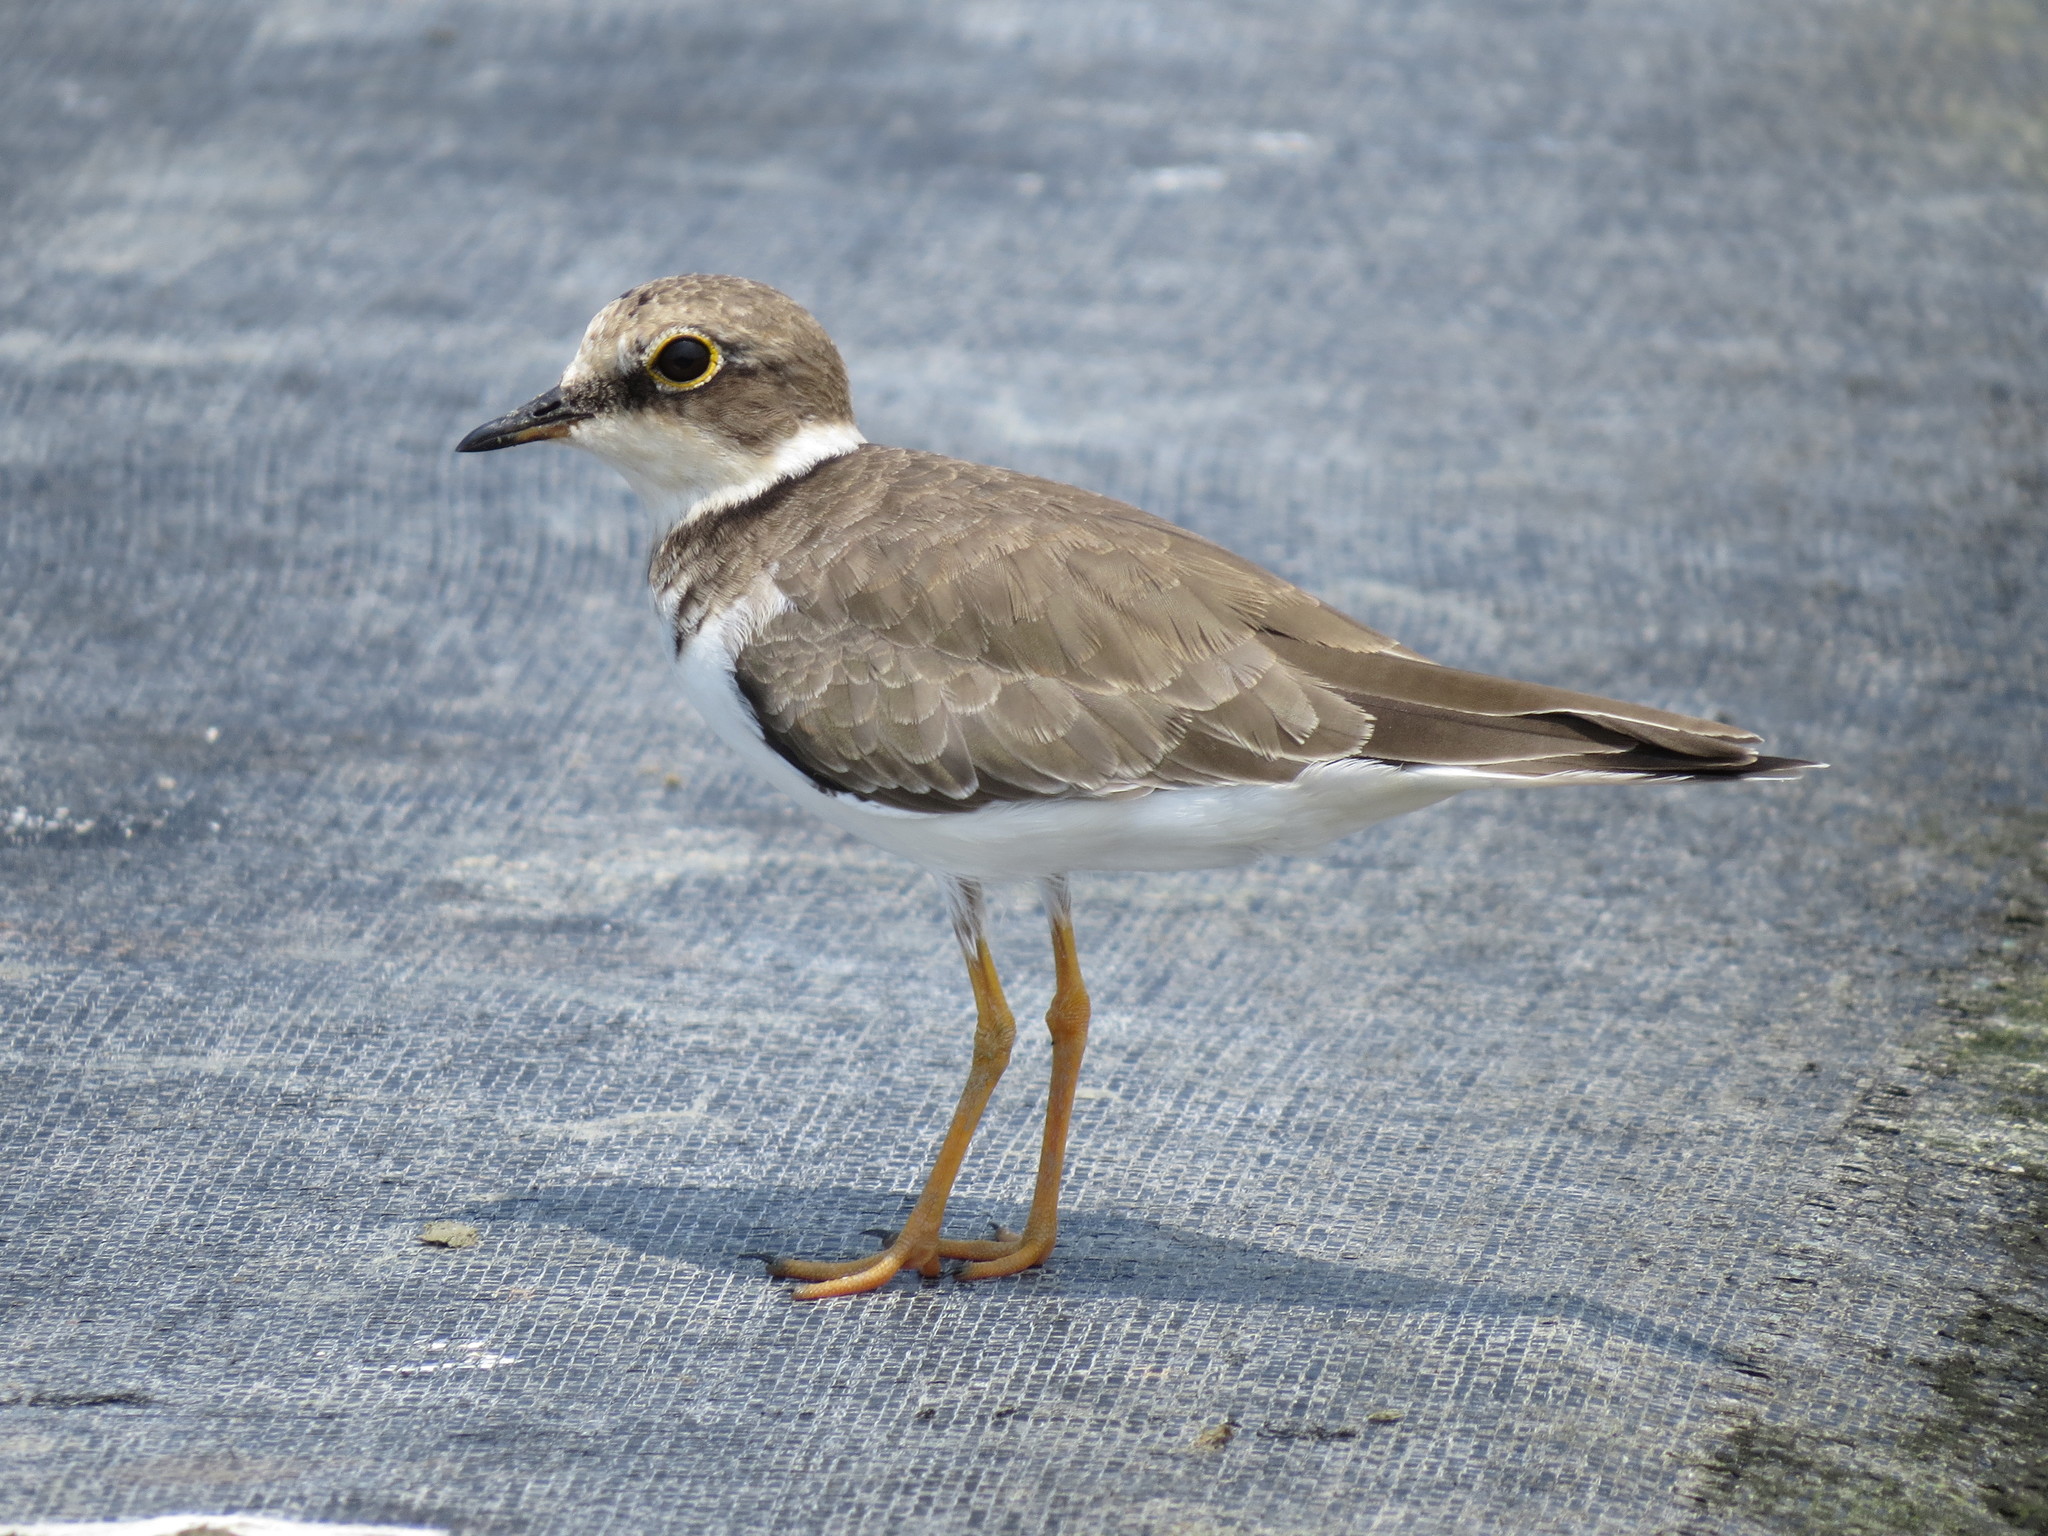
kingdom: Animalia
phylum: Chordata
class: Aves
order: Charadriiformes
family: Charadriidae
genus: Charadrius
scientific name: Charadrius dubius
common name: Little ringed plover
